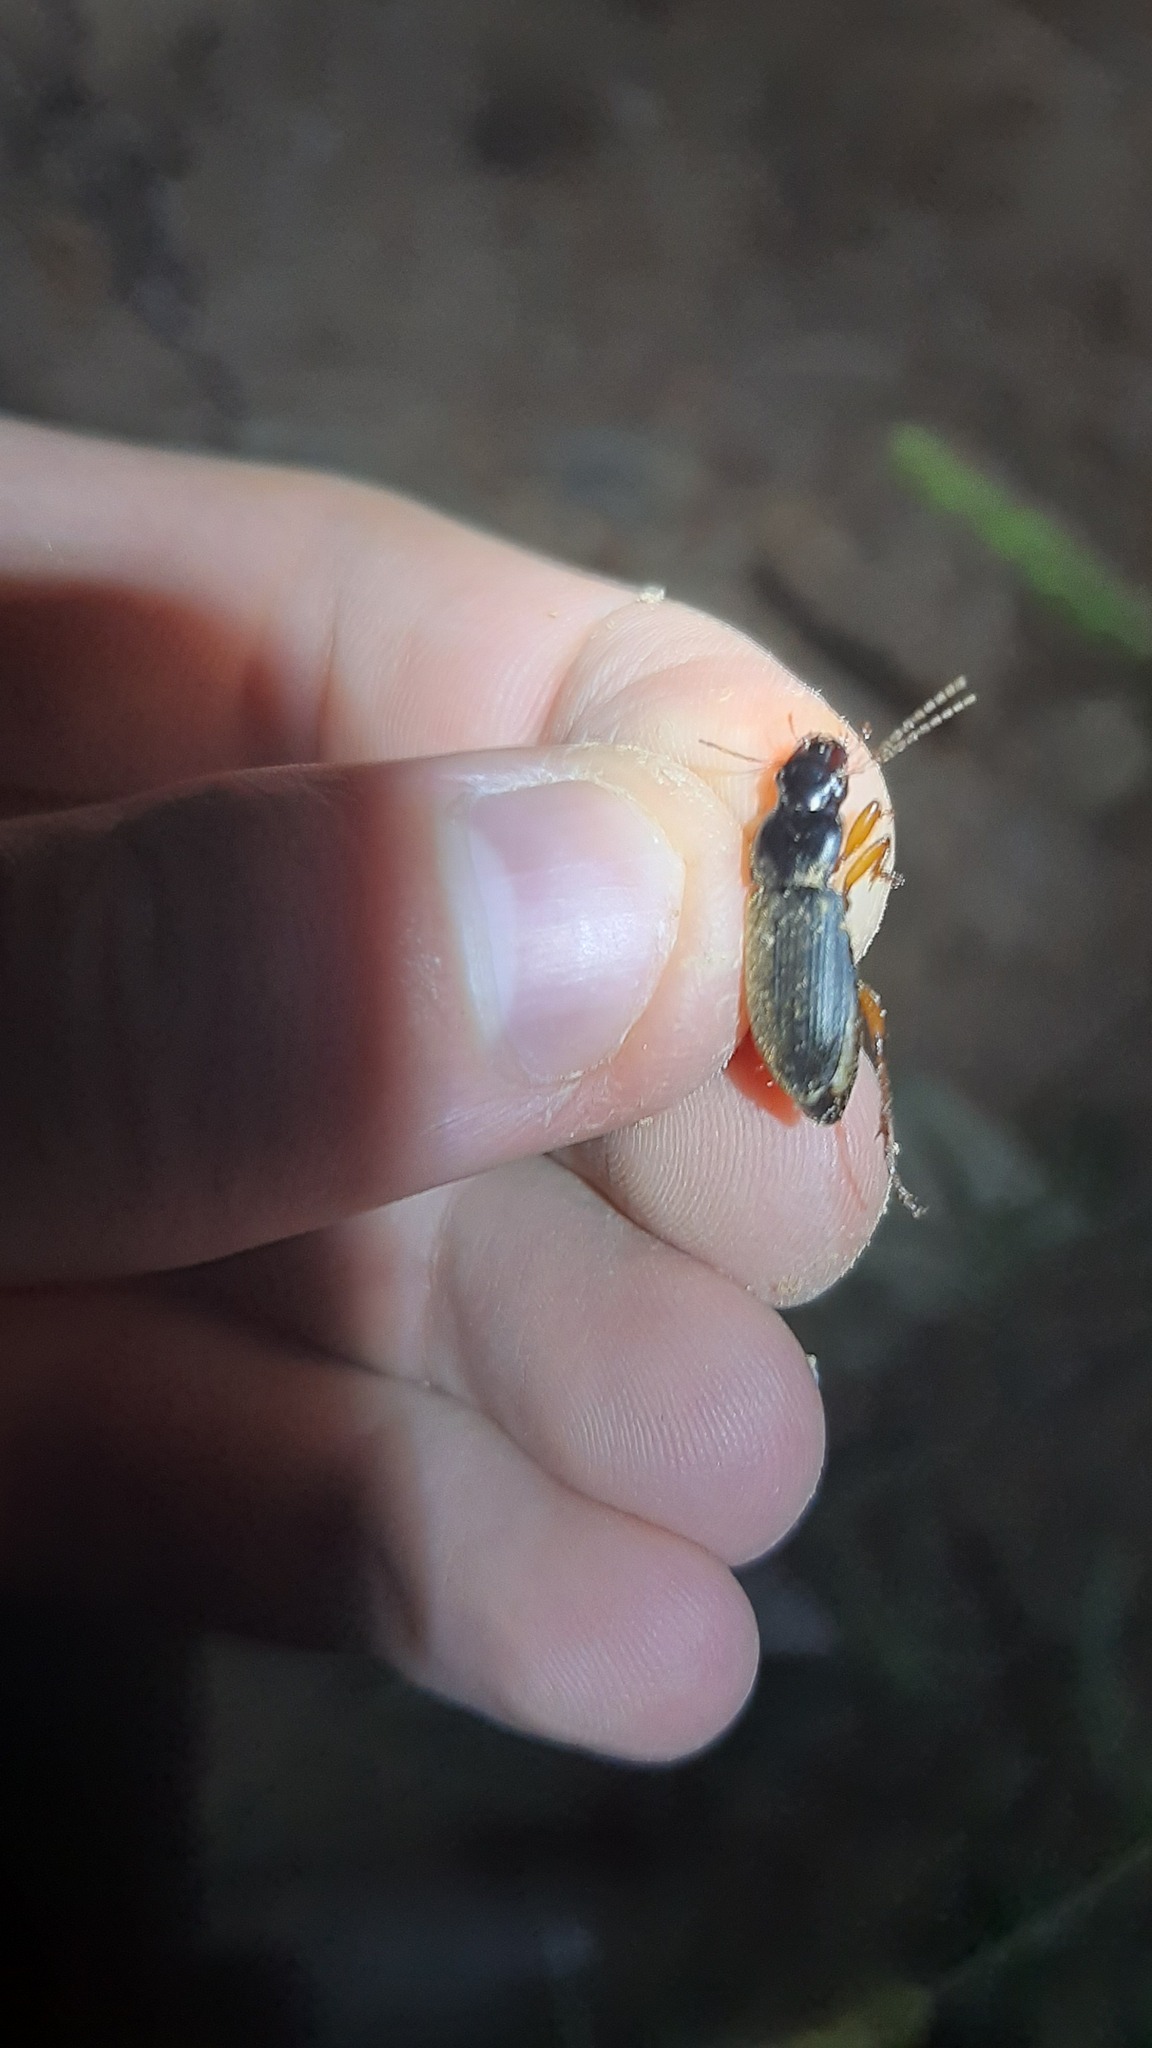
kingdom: Animalia
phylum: Arthropoda
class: Insecta
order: Coleoptera
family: Carabidae
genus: Harpalus
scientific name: Harpalus rufipes
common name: Strawberry harp ground beetle
